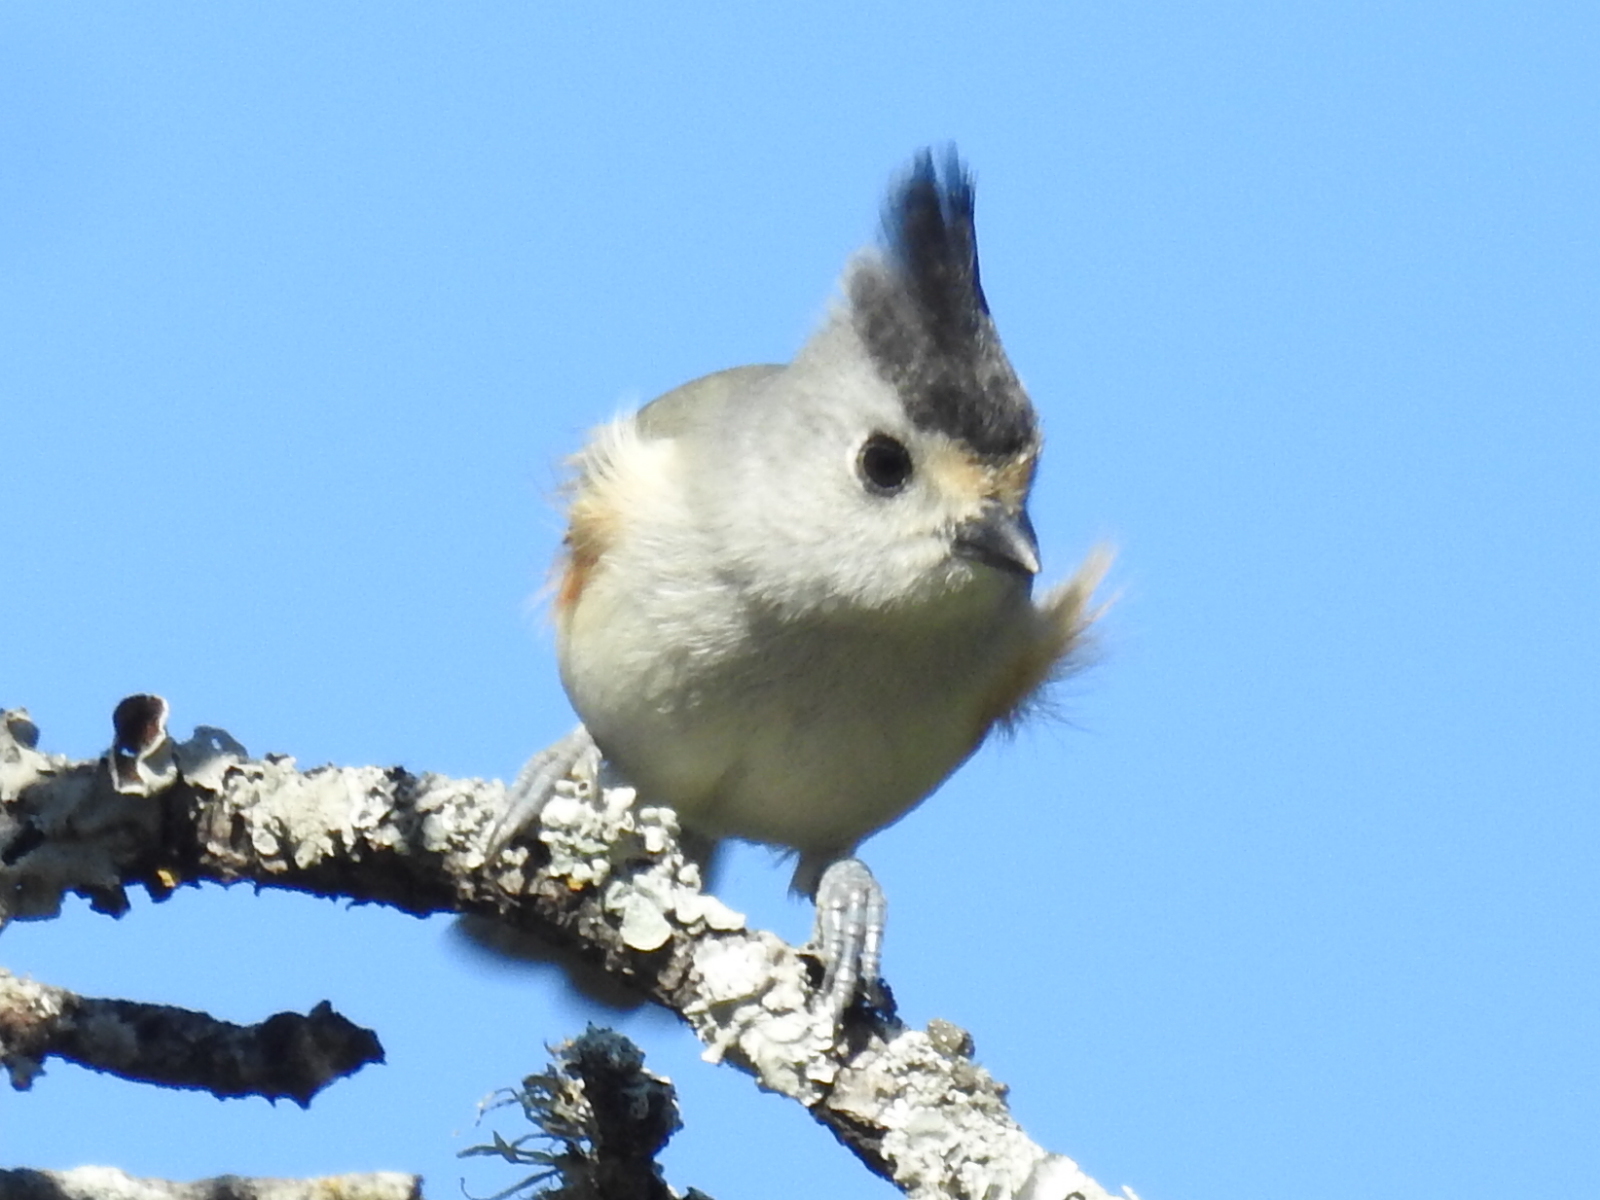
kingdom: Animalia
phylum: Chordata
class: Aves
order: Passeriformes
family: Paridae
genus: Baeolophus
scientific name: Baeolophus atricristatus
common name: Black-crested titmouse
